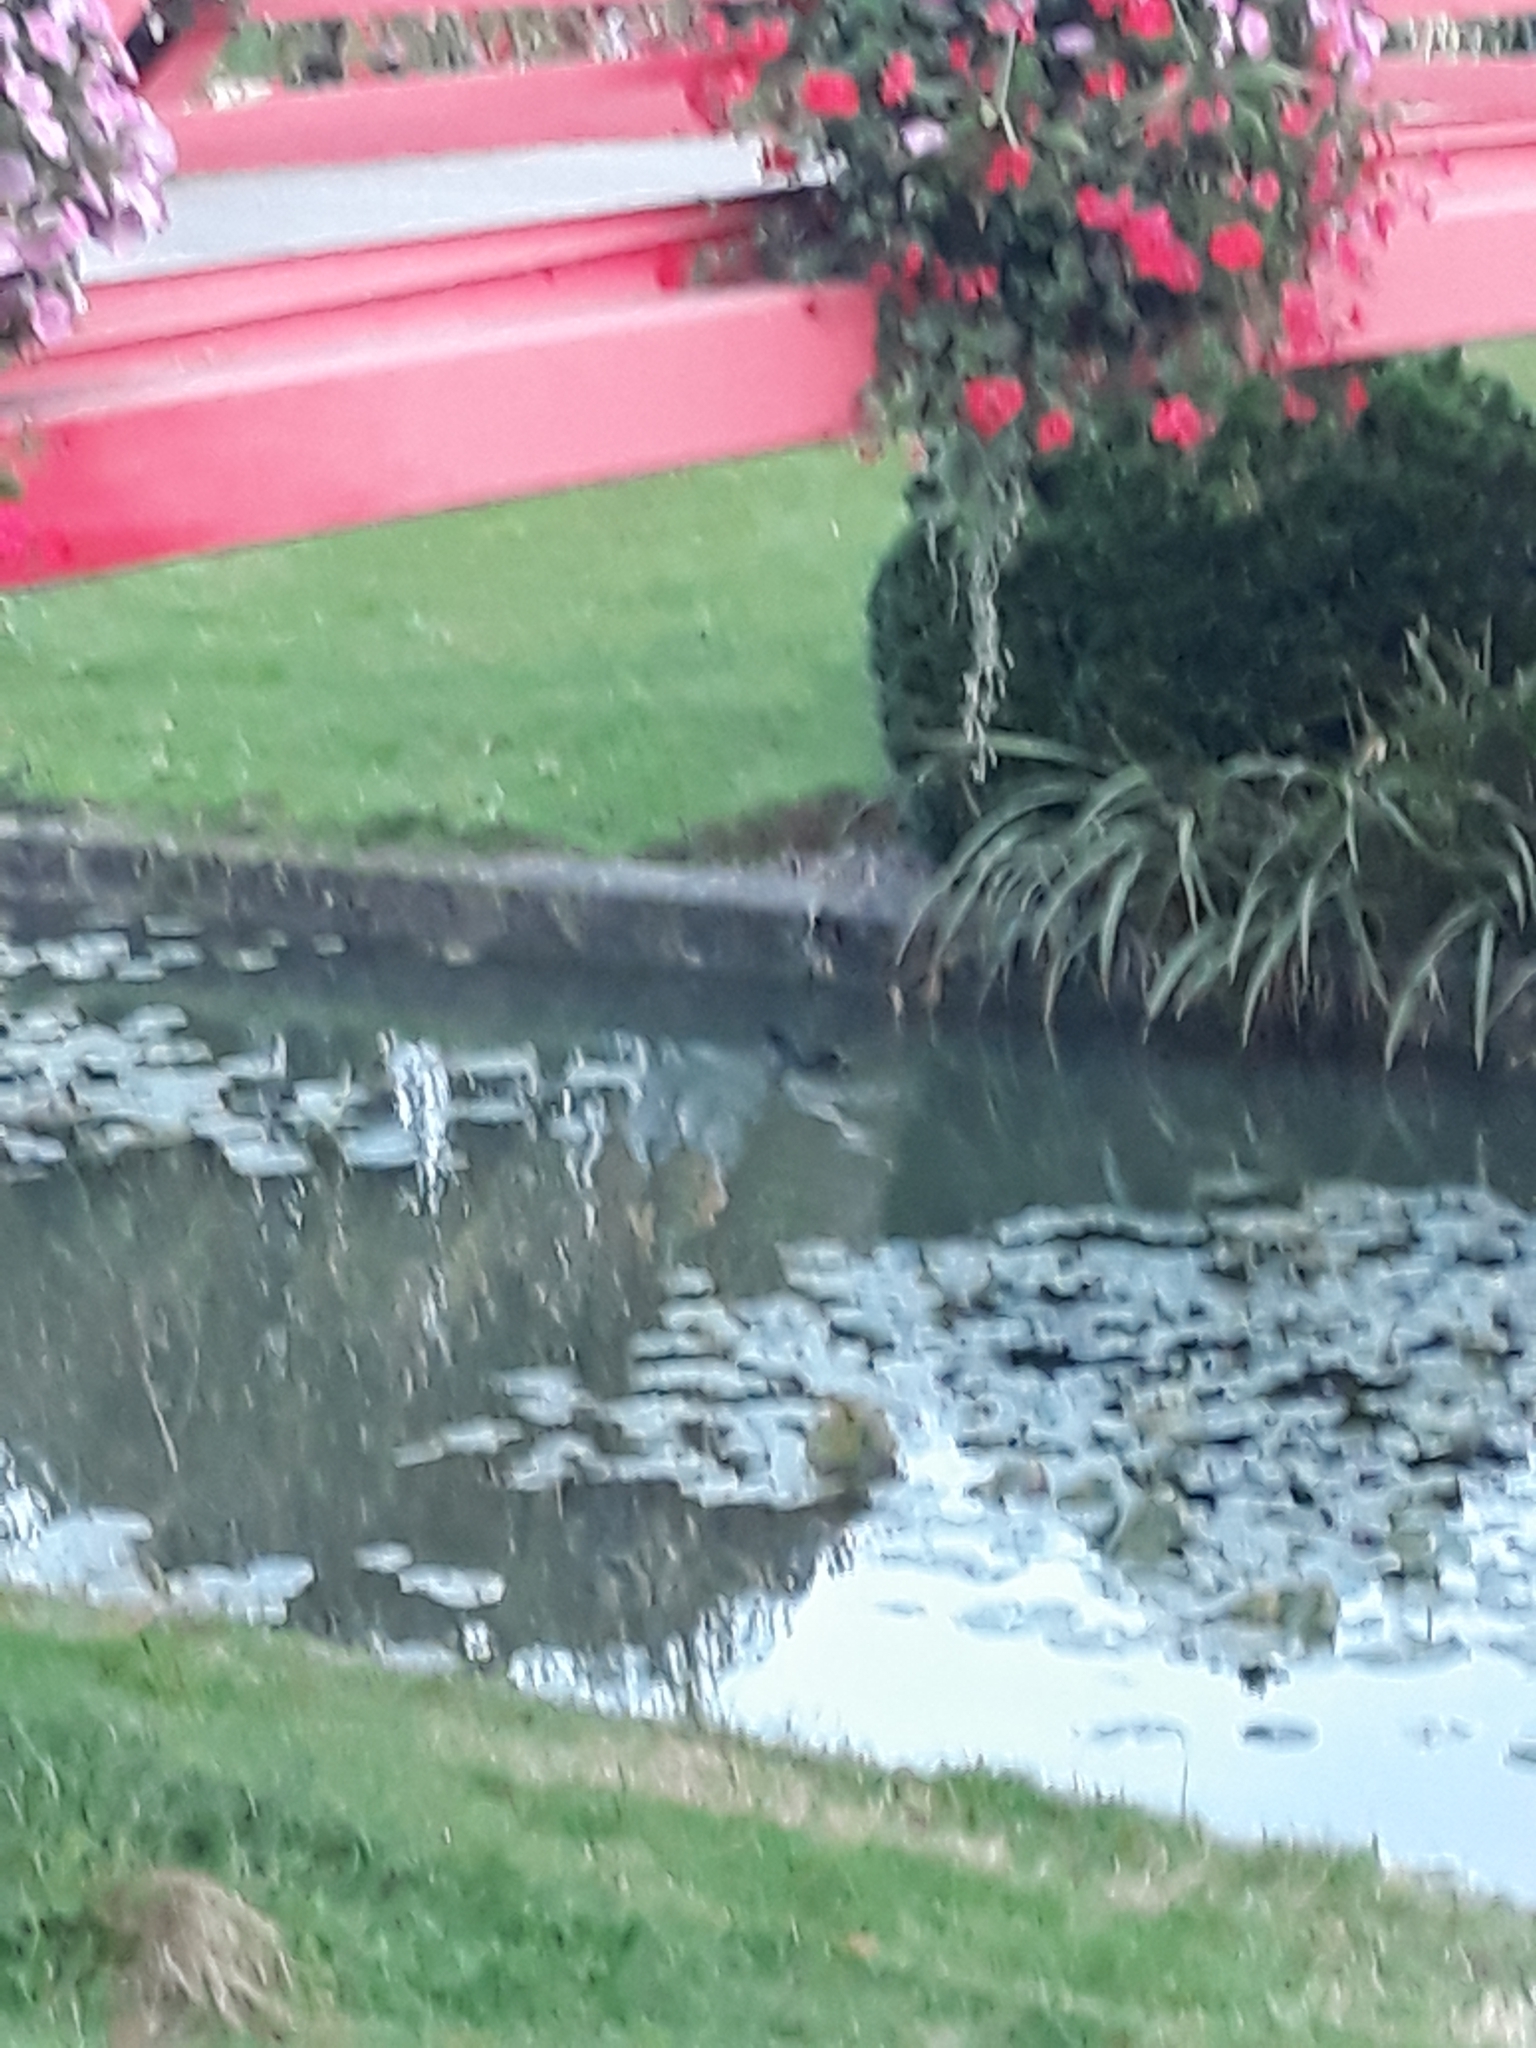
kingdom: Animalia
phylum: Chordata
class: Aves
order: Gruiformes
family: Rallidae
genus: Gallinula
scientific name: Gallinula chloropus
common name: Common moorhen
